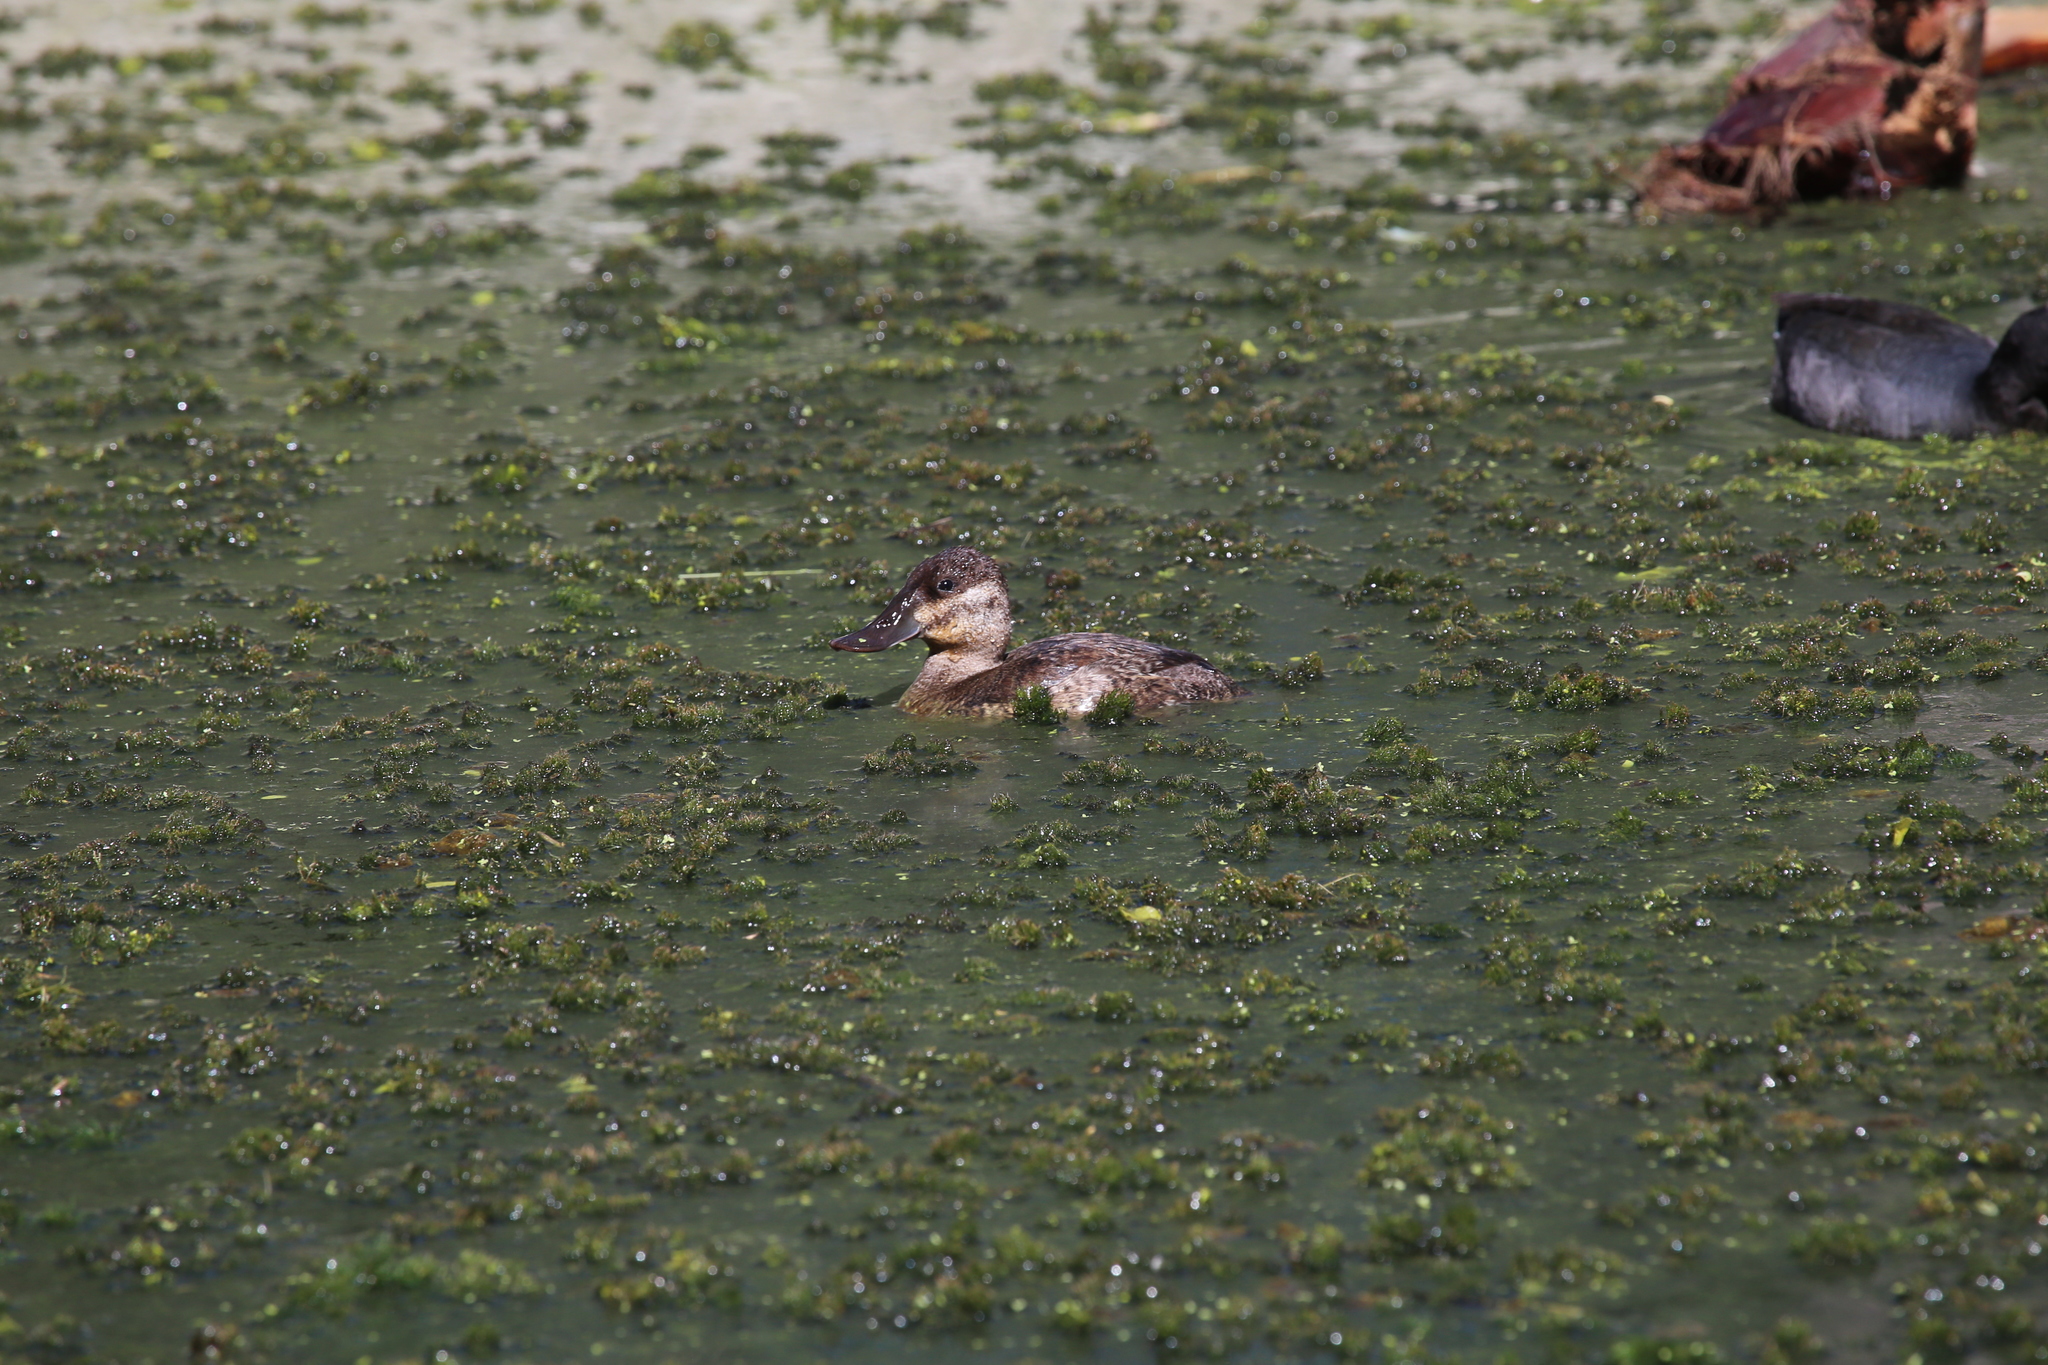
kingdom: Animalia
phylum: Chordata
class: Aves
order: Anseriformes
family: Anatidae
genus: Oxyura
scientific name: Oxyura jamaicensis
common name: Ruddy duck
